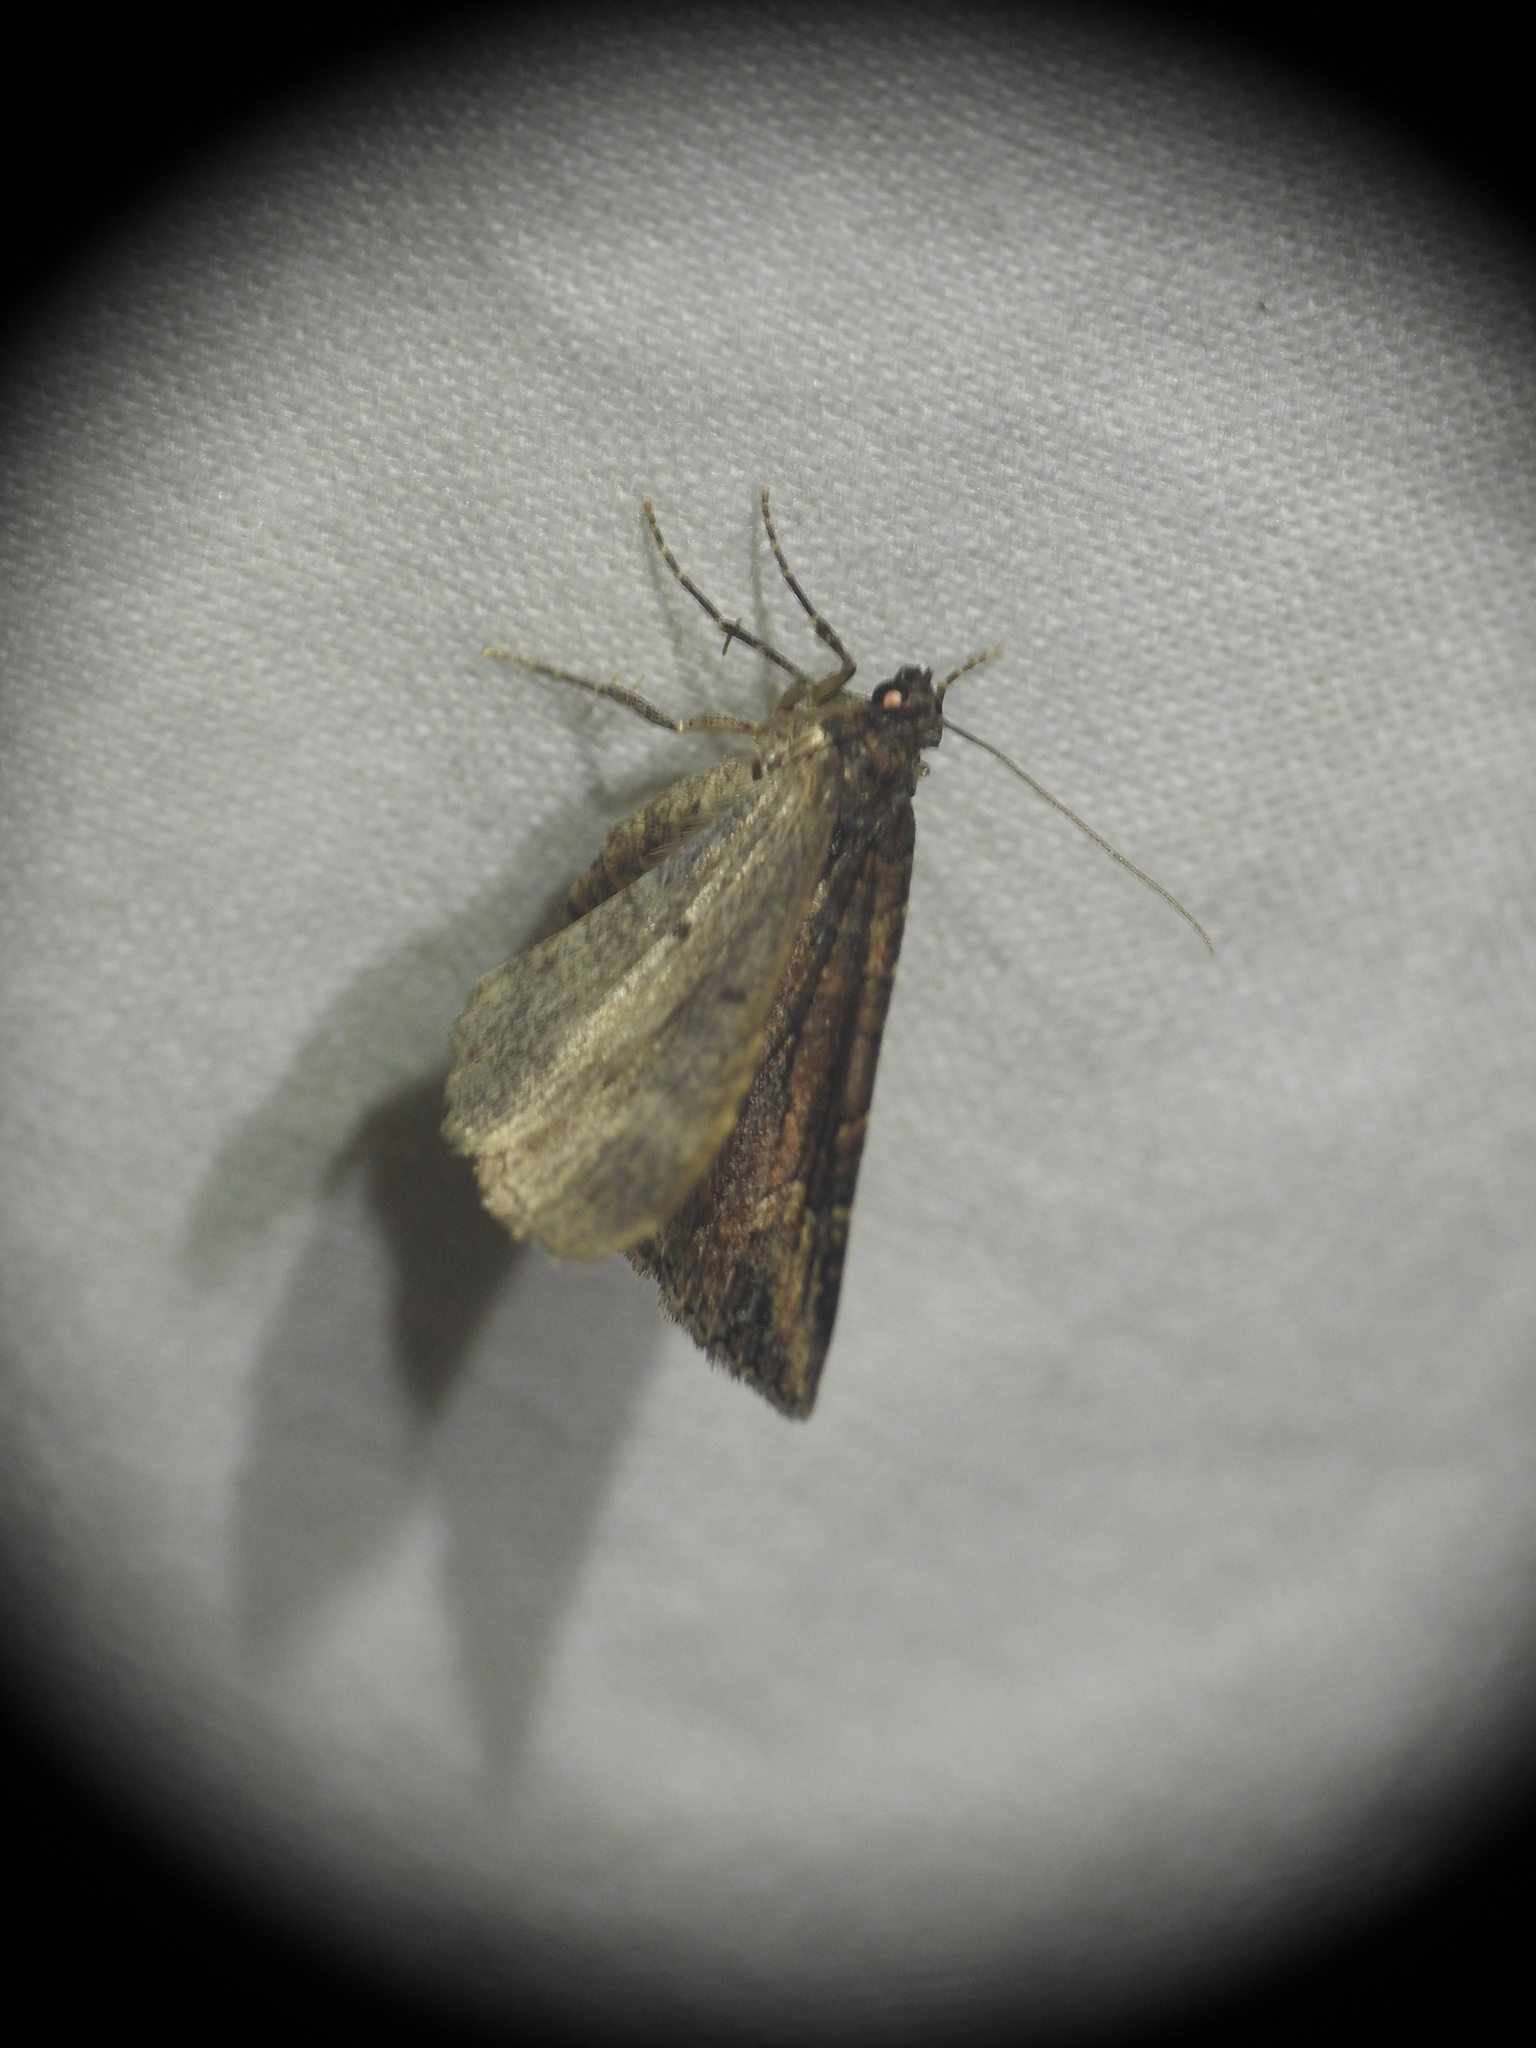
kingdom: Animalia
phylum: Arthropoda
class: Insecta
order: Lepidoptera
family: Geometridae
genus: Nebula
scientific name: Nebula malvata
